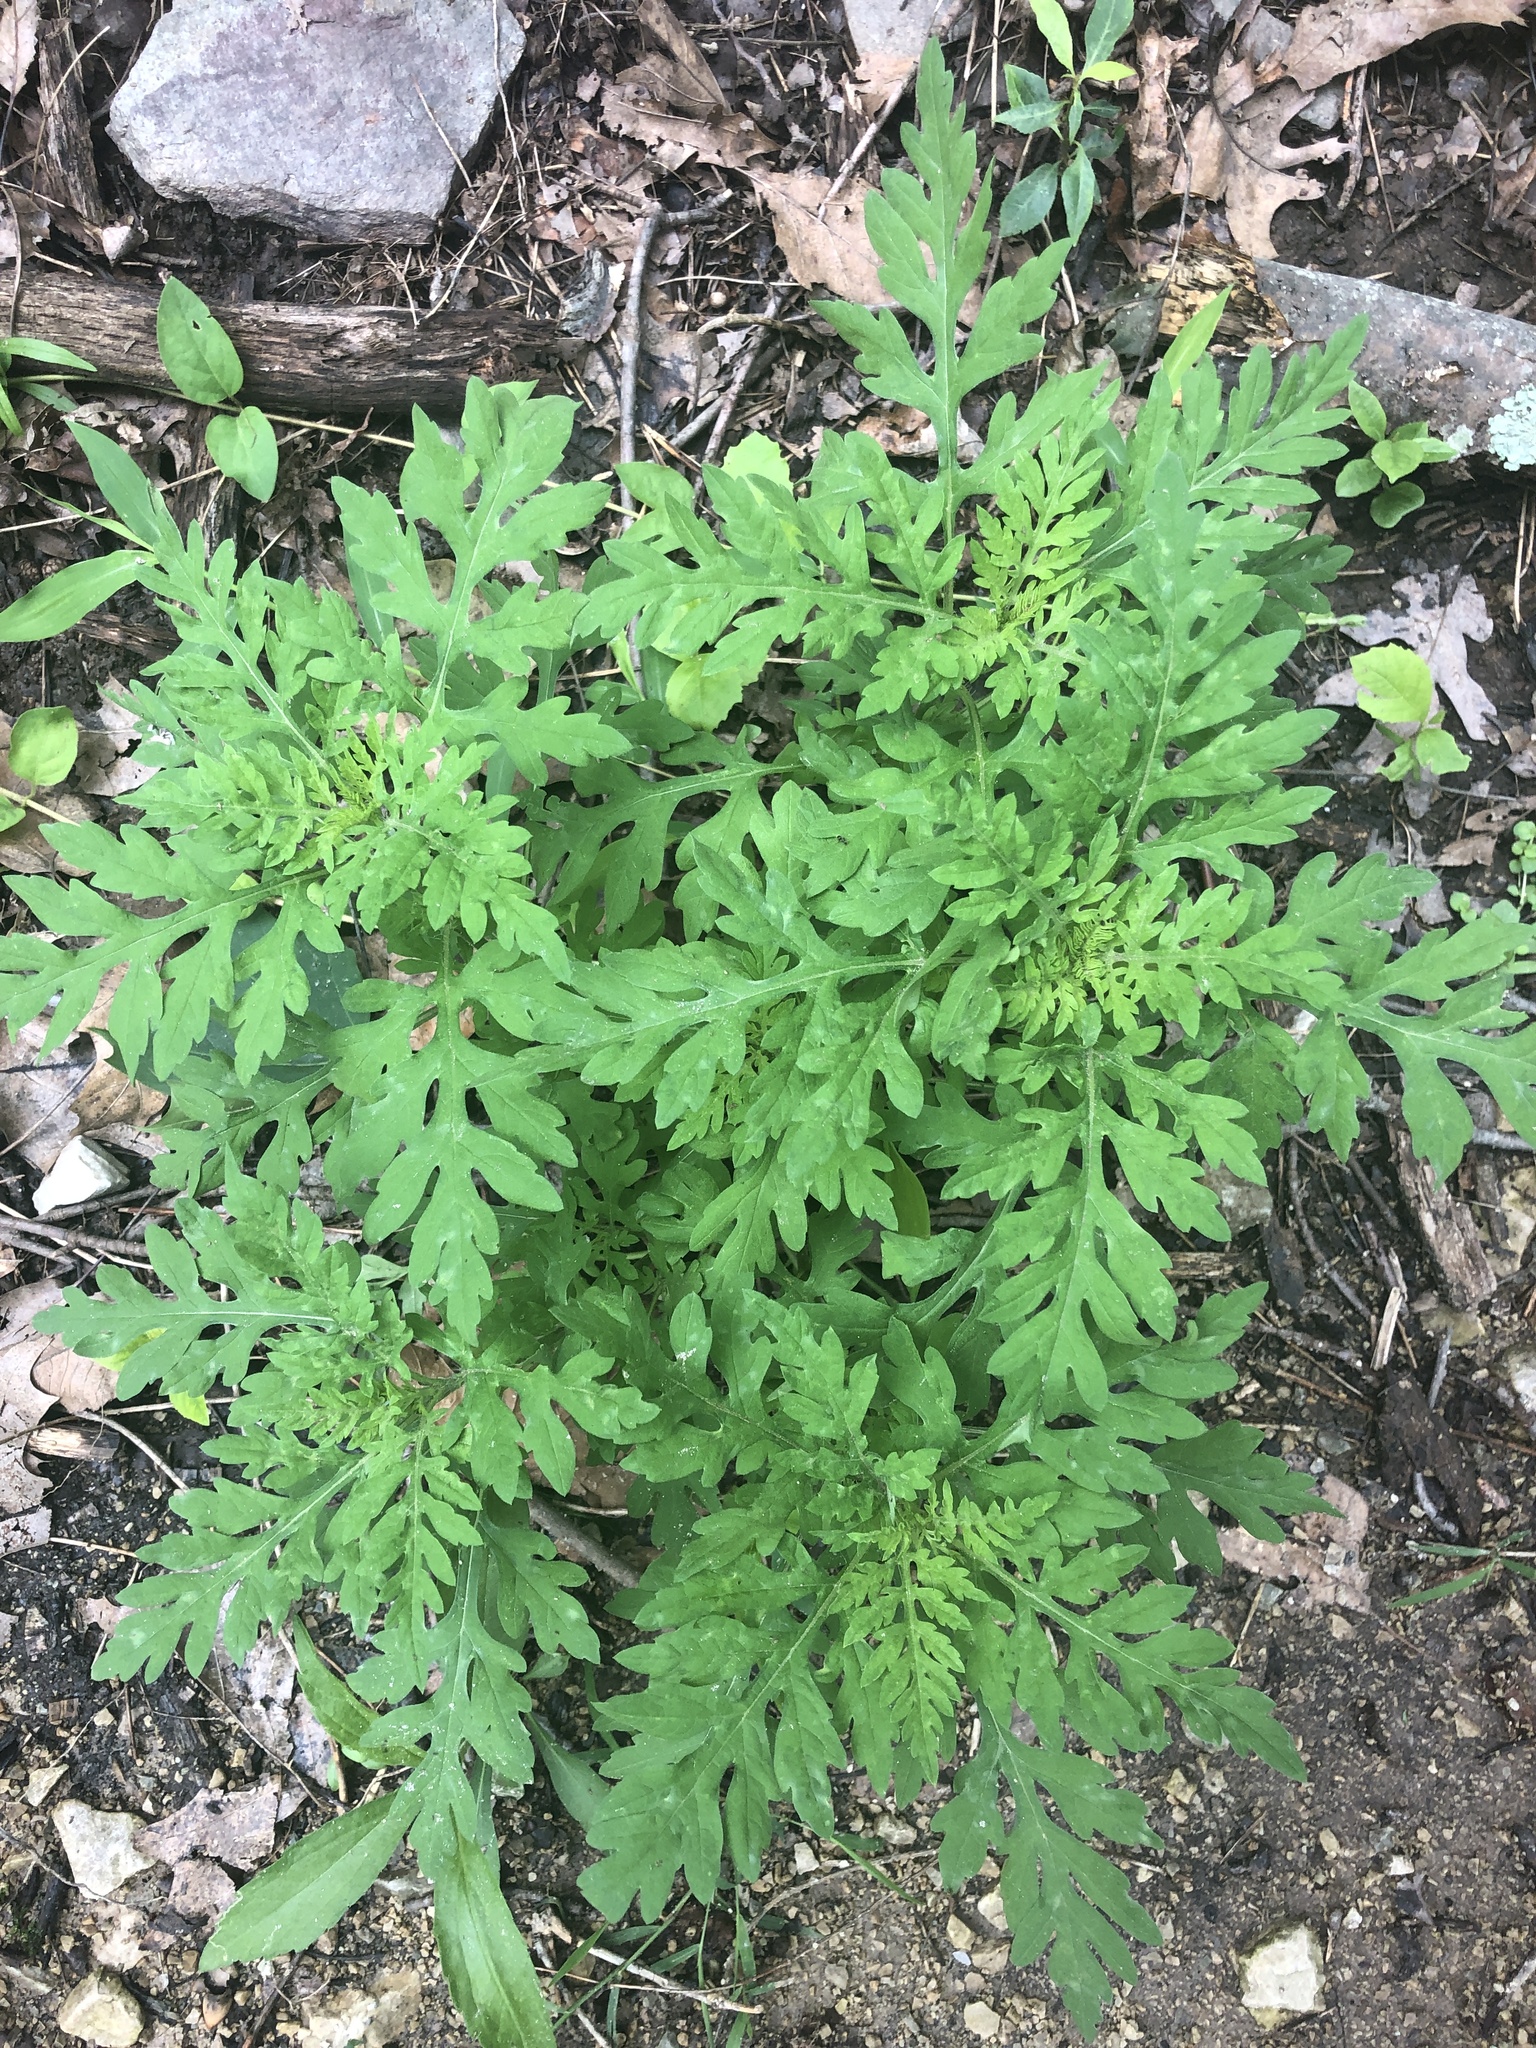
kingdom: Plantae
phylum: Tracheophyta
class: Magnoliopsida
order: Asterales
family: Asteraceae
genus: Ambrosia
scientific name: Ambrosia artemisiifolia
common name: Annual ragweed
